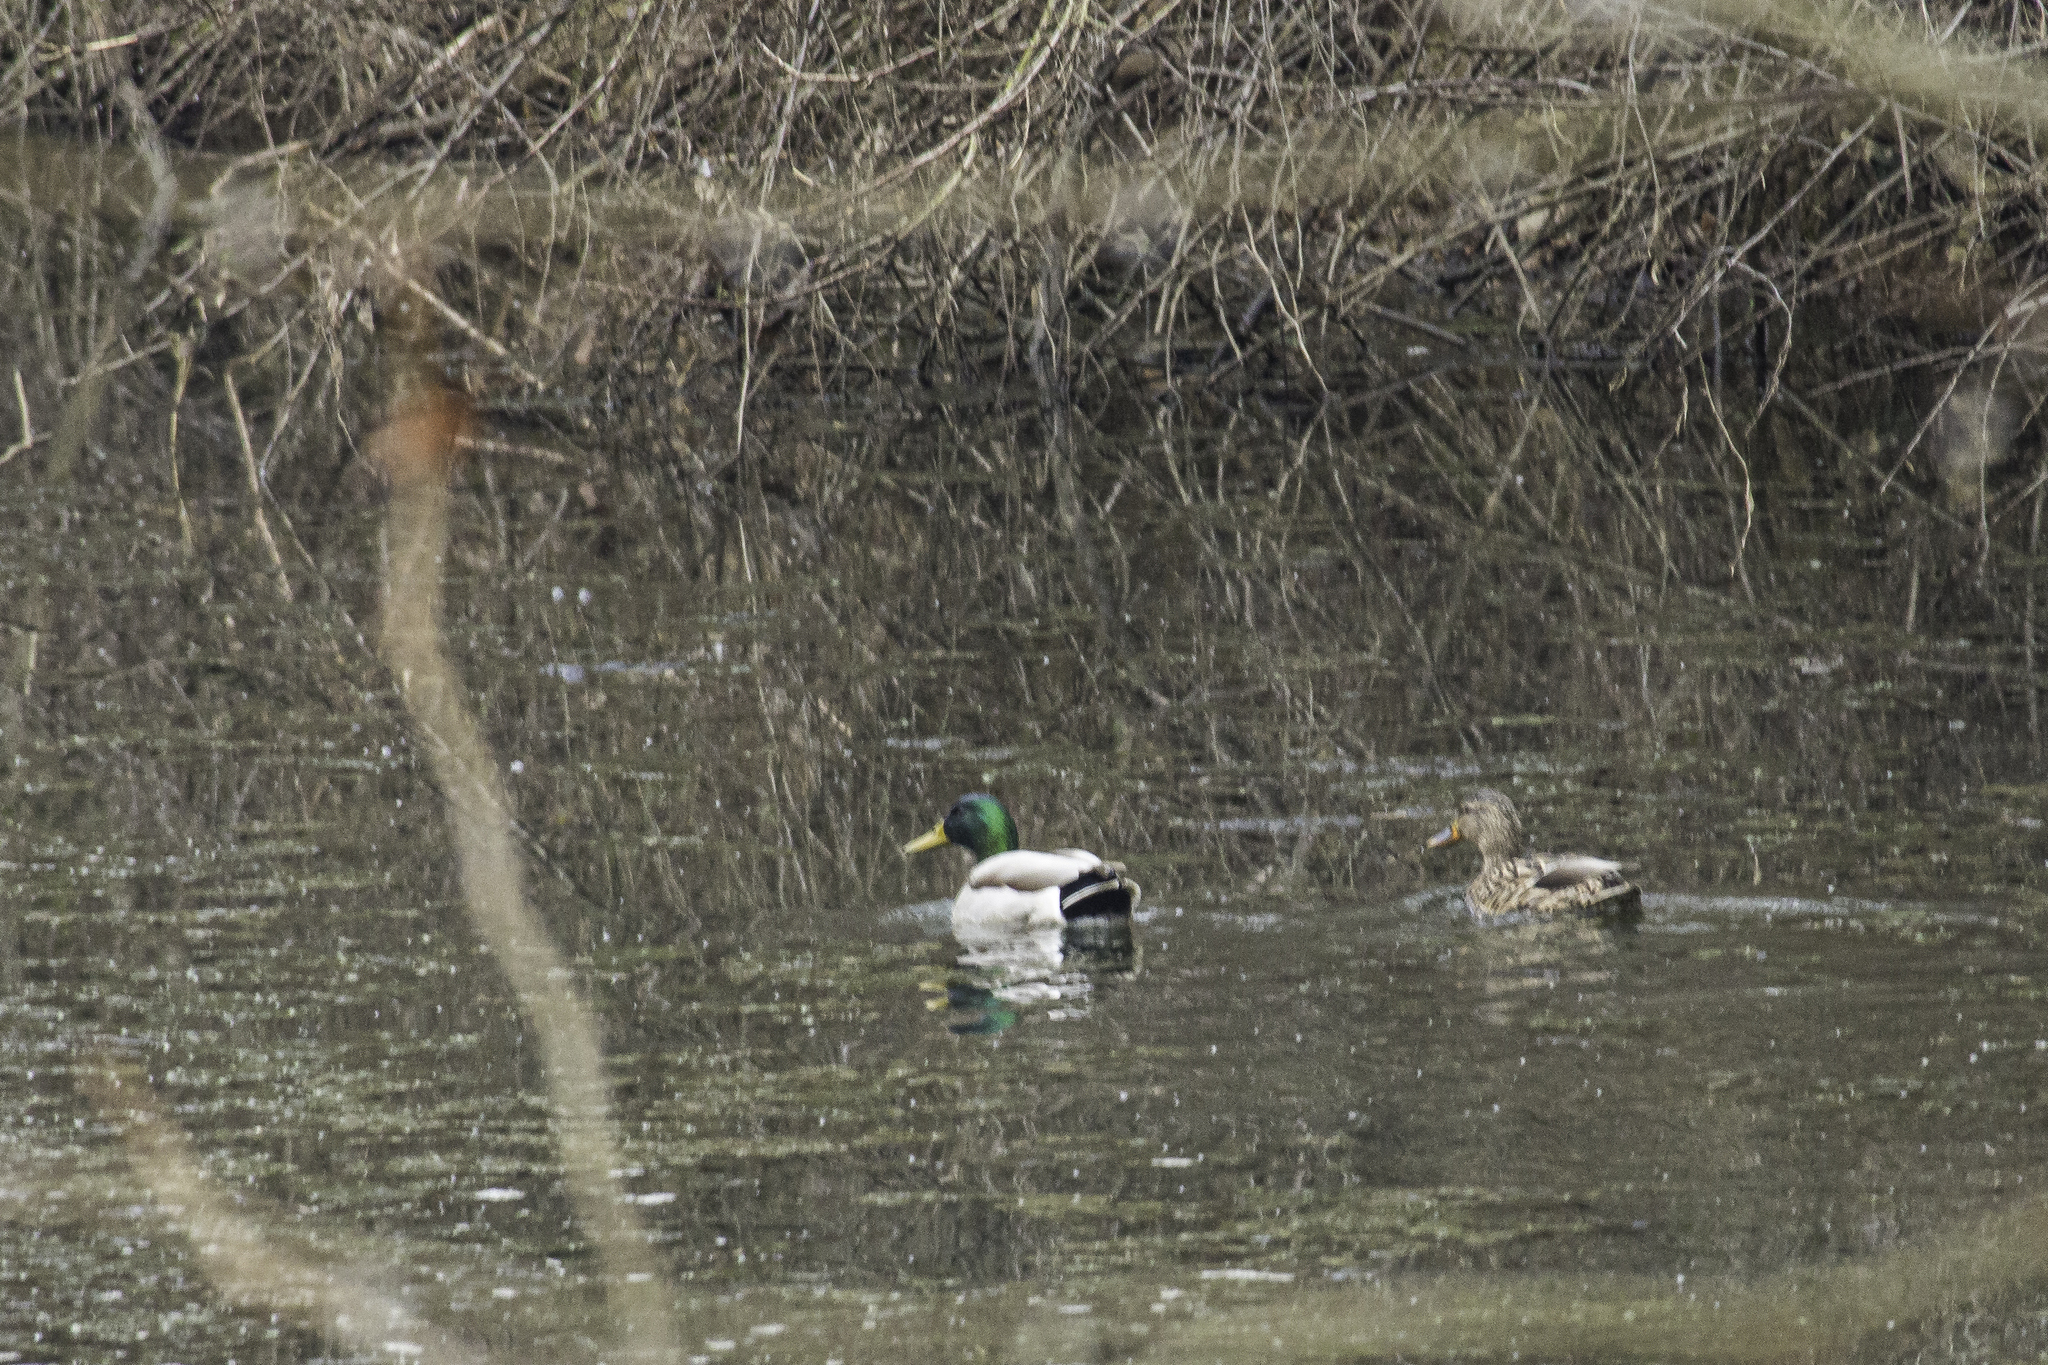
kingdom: Animalia
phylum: Chordata
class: Aves
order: Anseriformes
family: Anatidae
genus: Anas
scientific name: Anas platyrhynchos
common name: Mallard
